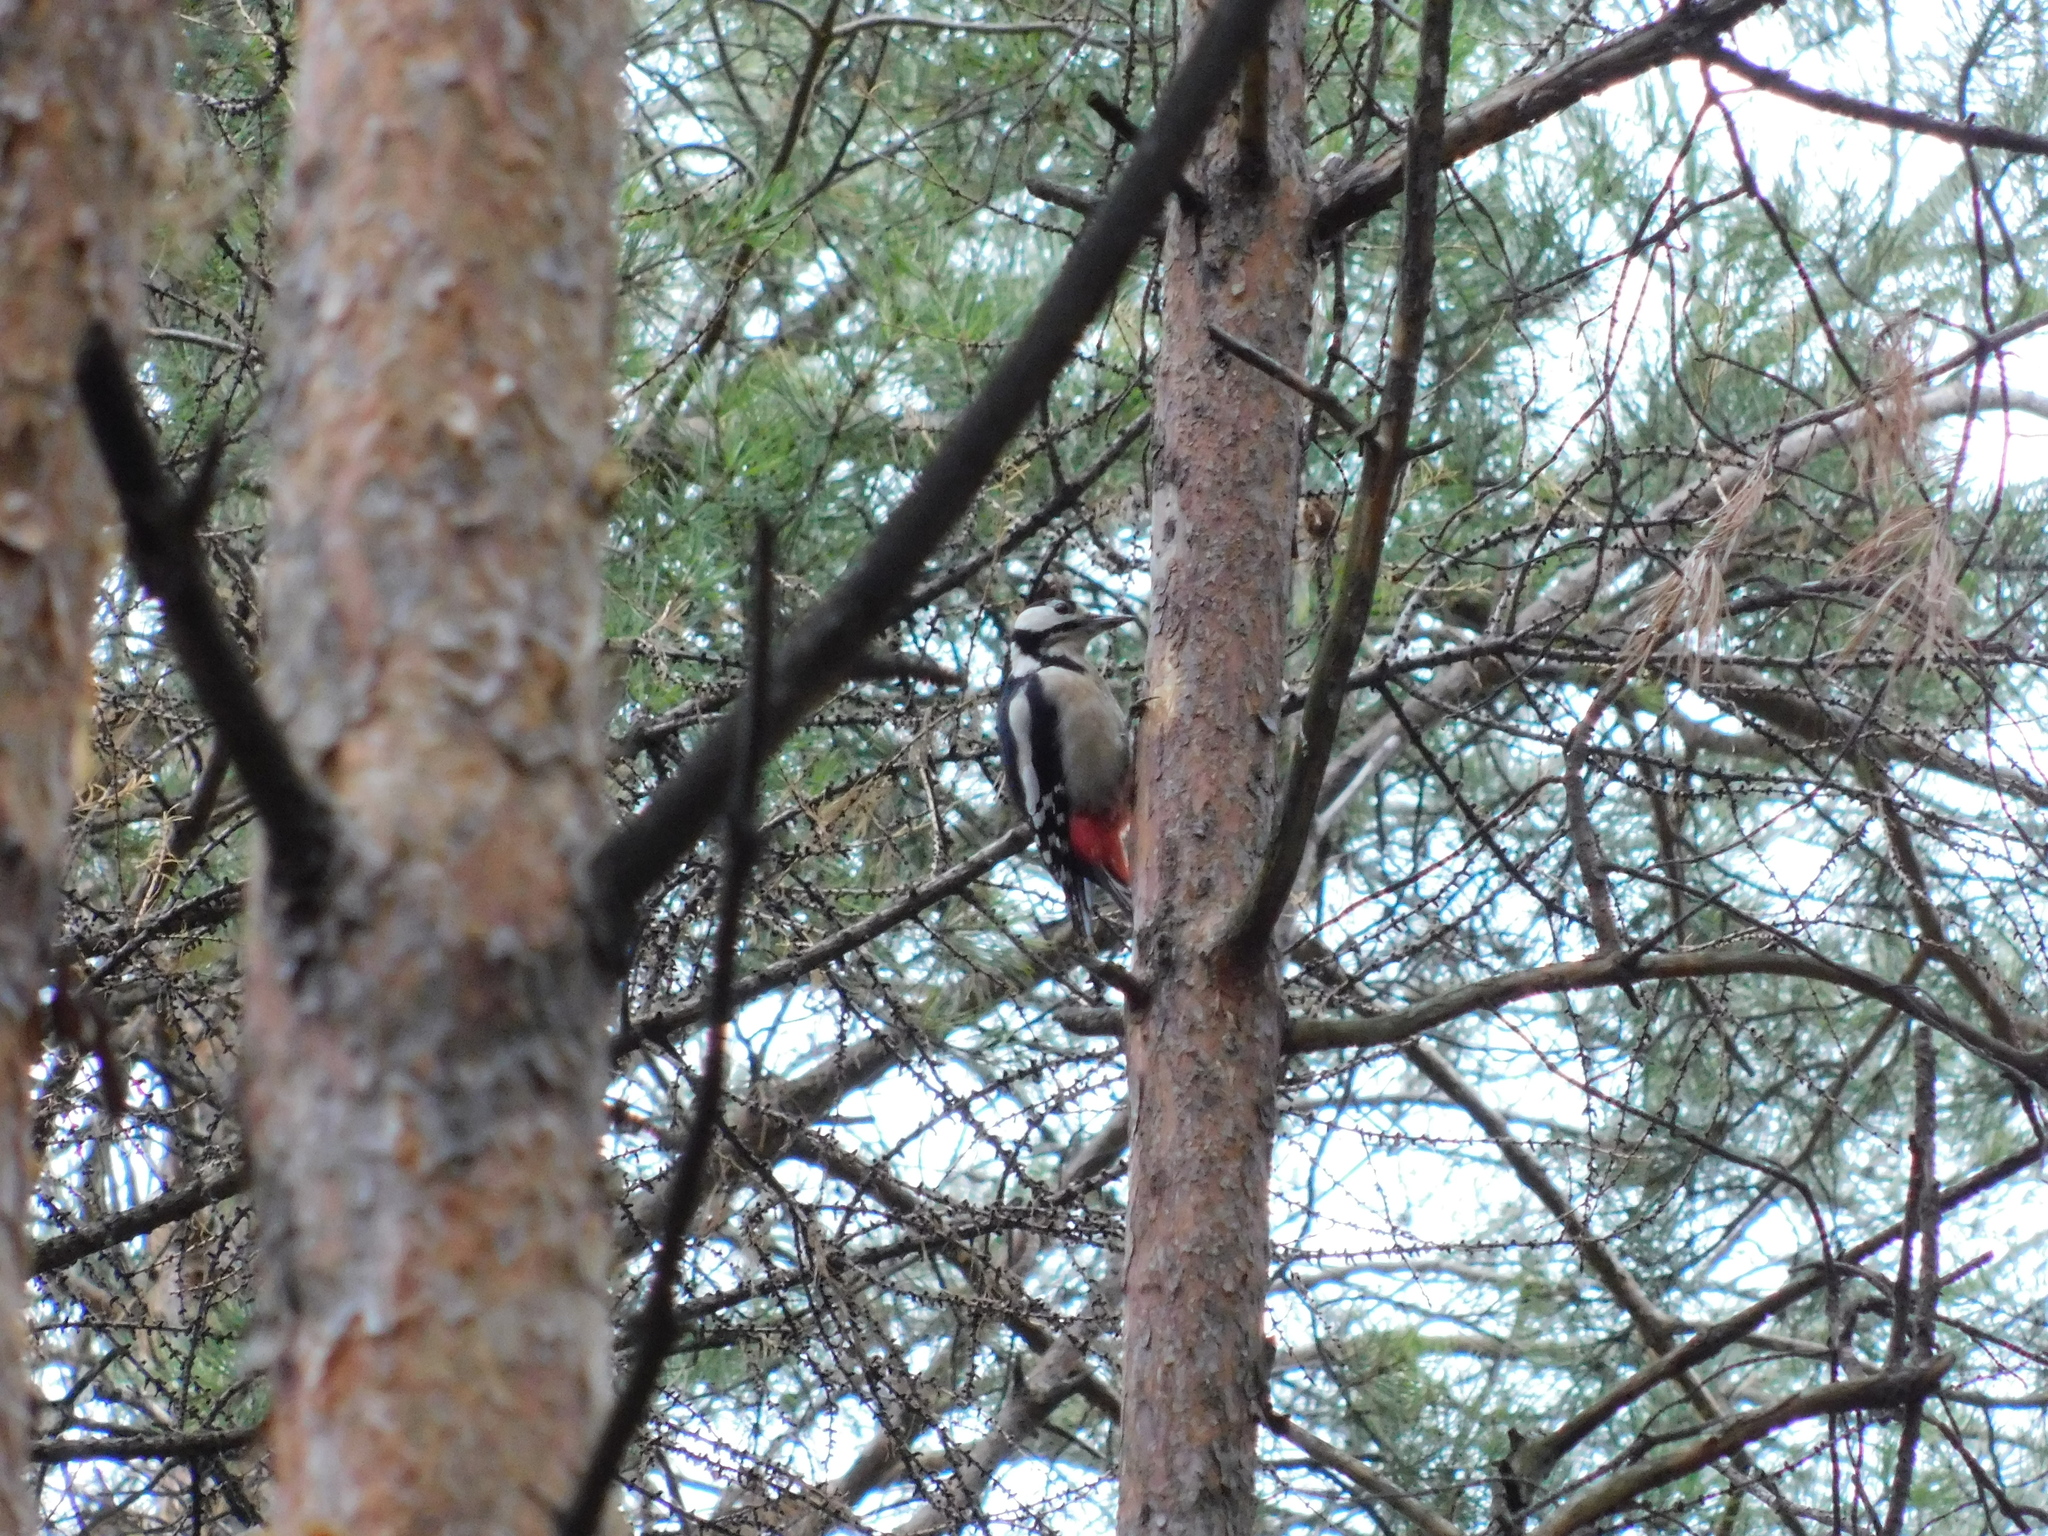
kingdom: Animalia
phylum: Chordata
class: Aves
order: Piciformes
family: Picidae
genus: Dendrocopos
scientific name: Dendrocopos major
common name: Great spotted woodpecker
